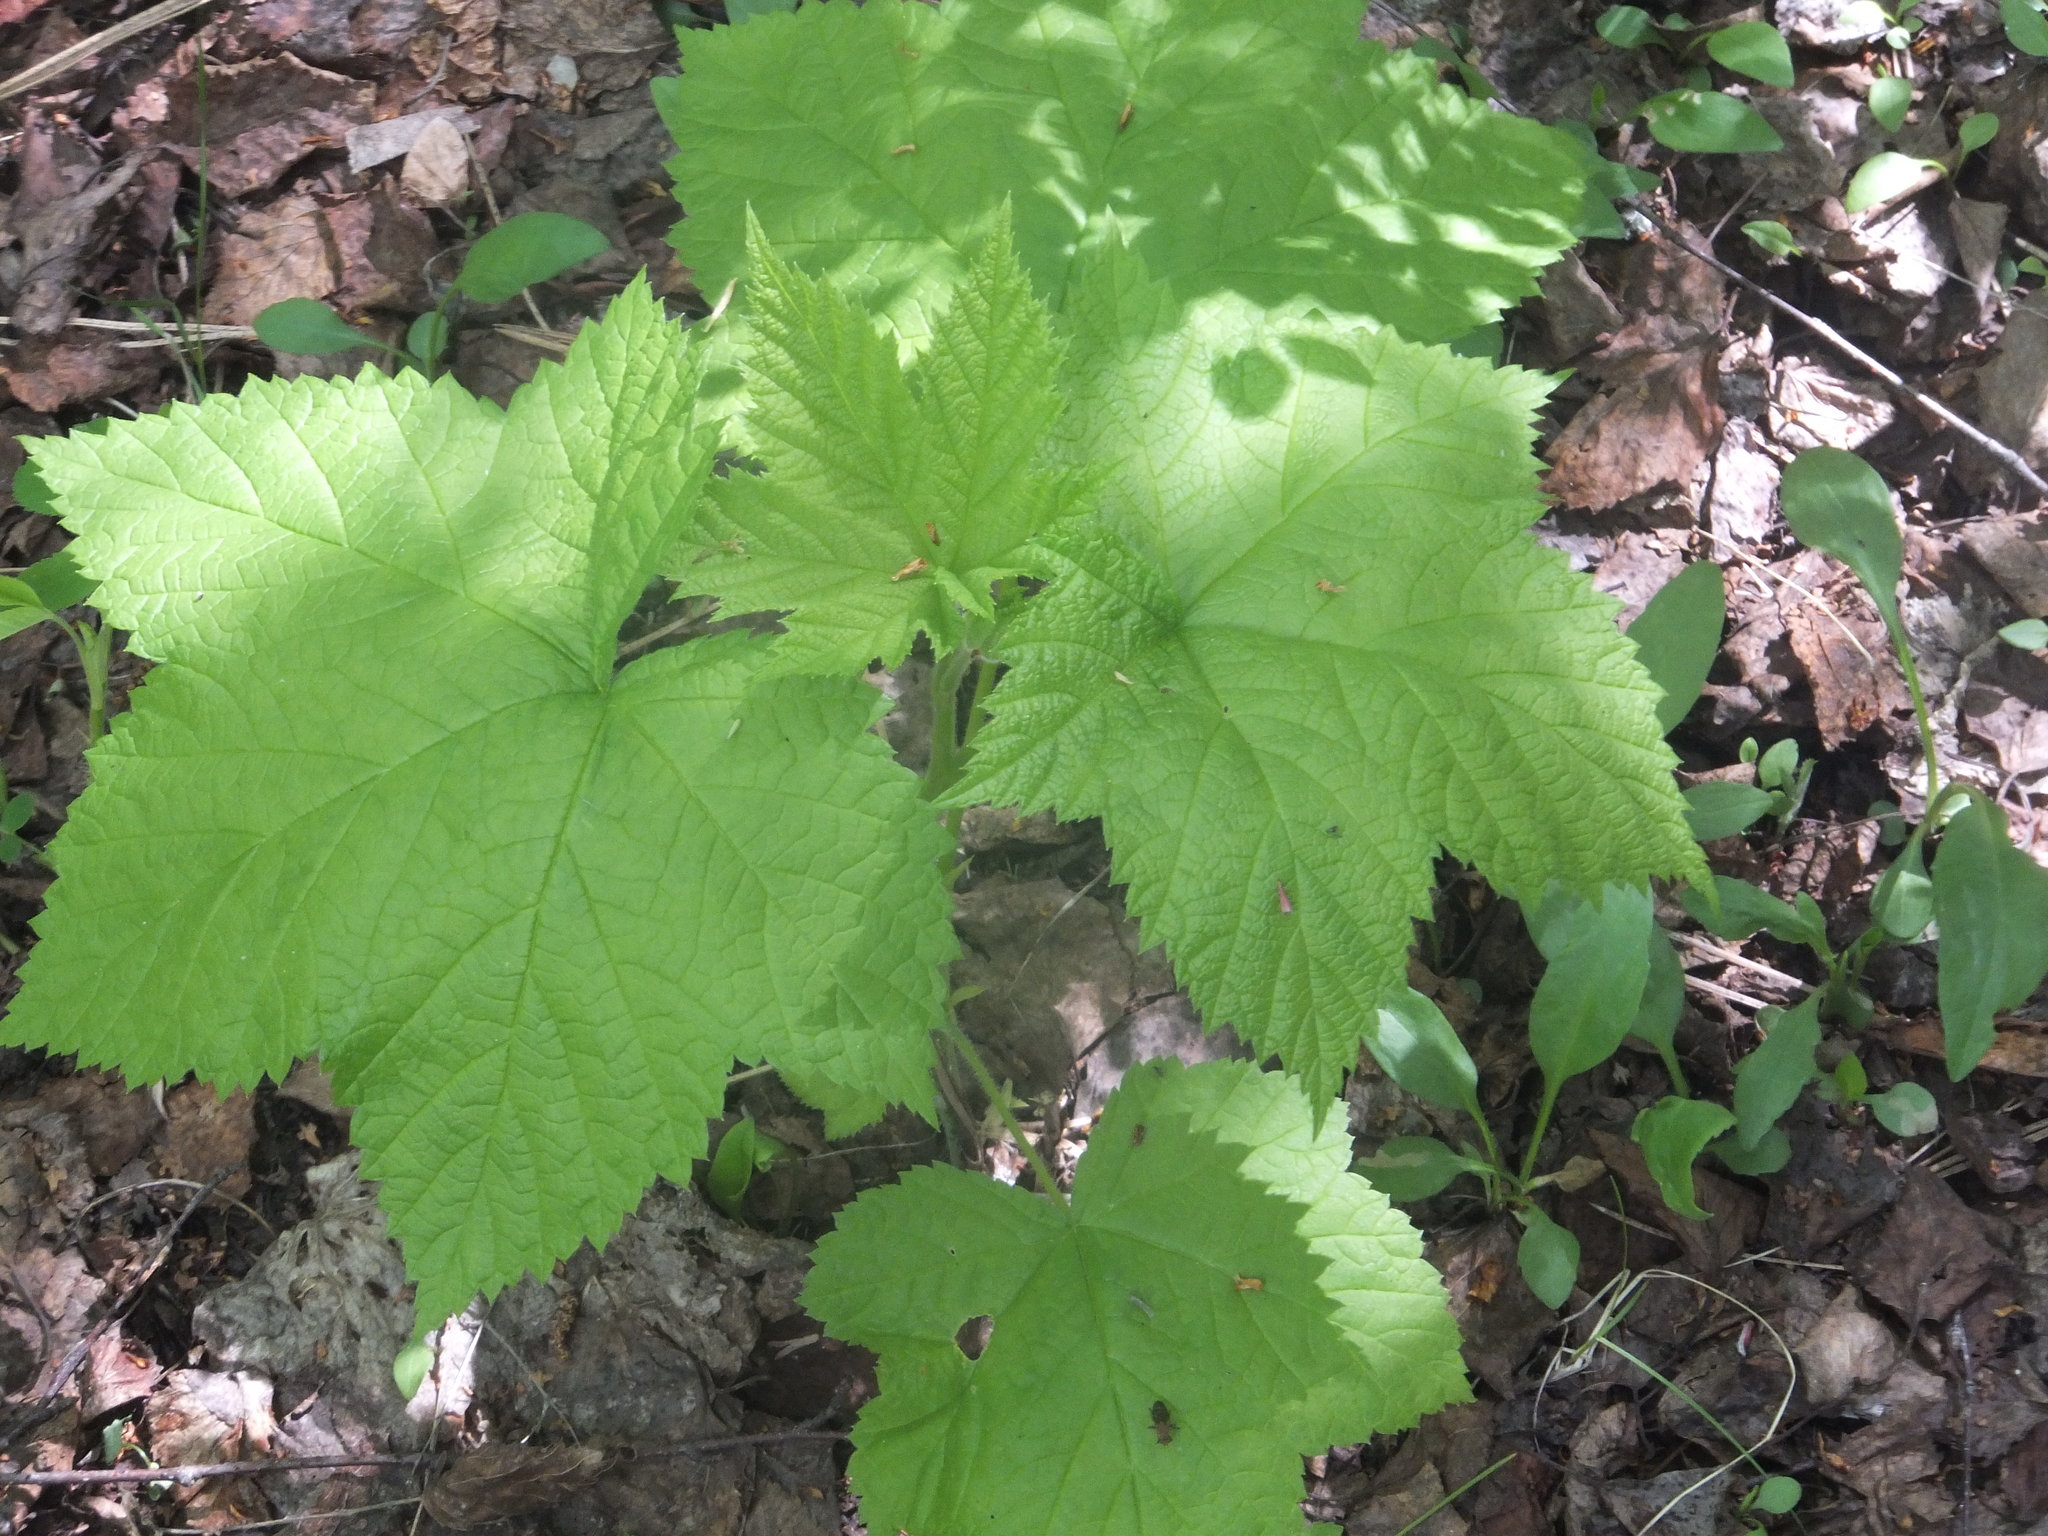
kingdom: Plantae
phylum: Tracheophyta
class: Magnoliopsida
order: Rosales
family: Rosaceae
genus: Rubus
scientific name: Rubus parviflorus
